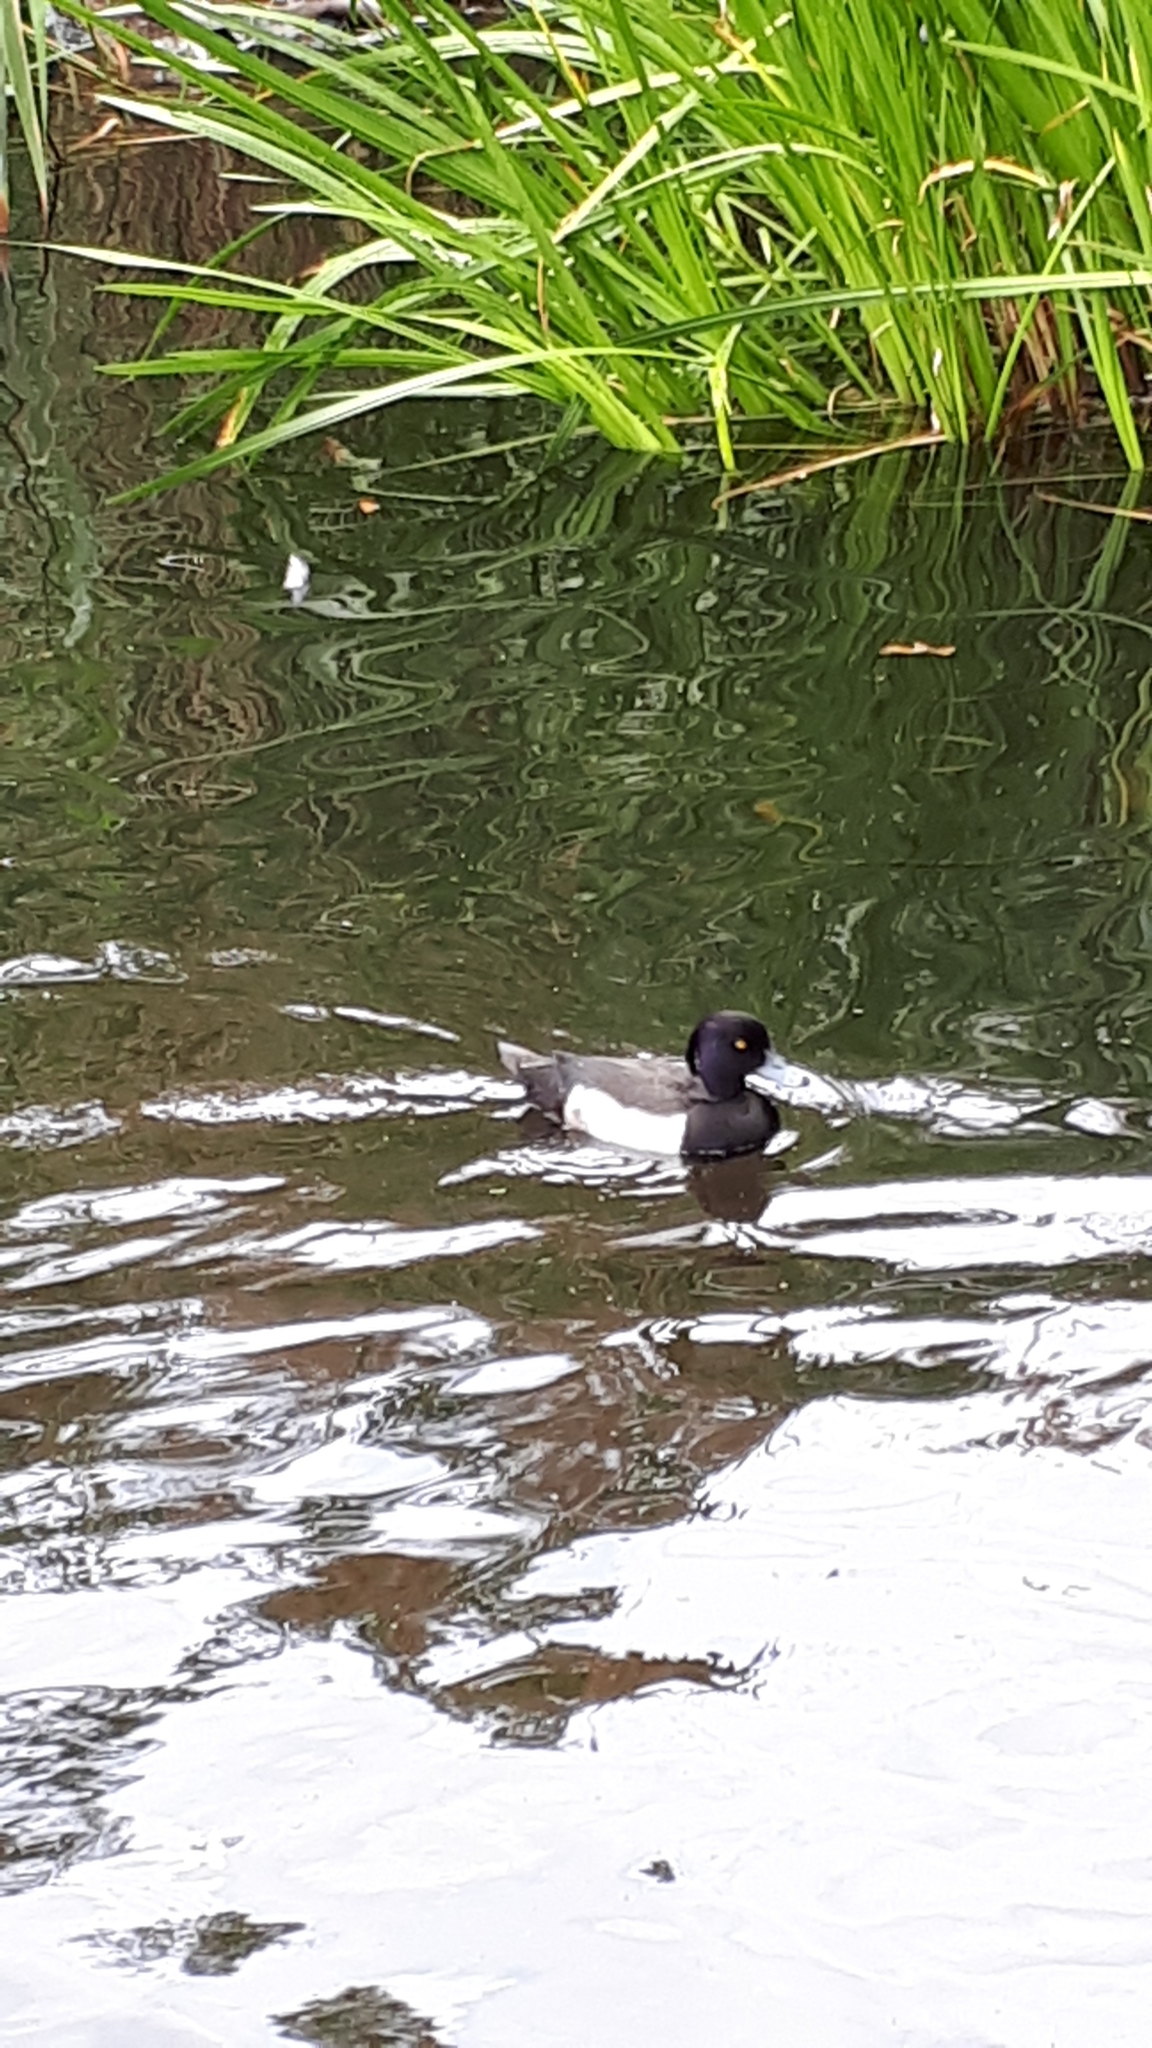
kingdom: Animalia
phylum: Chordata
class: Aves
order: Anseriformes
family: Anatidae
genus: Aythya
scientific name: Aythya fuligula
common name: Tufted duck
